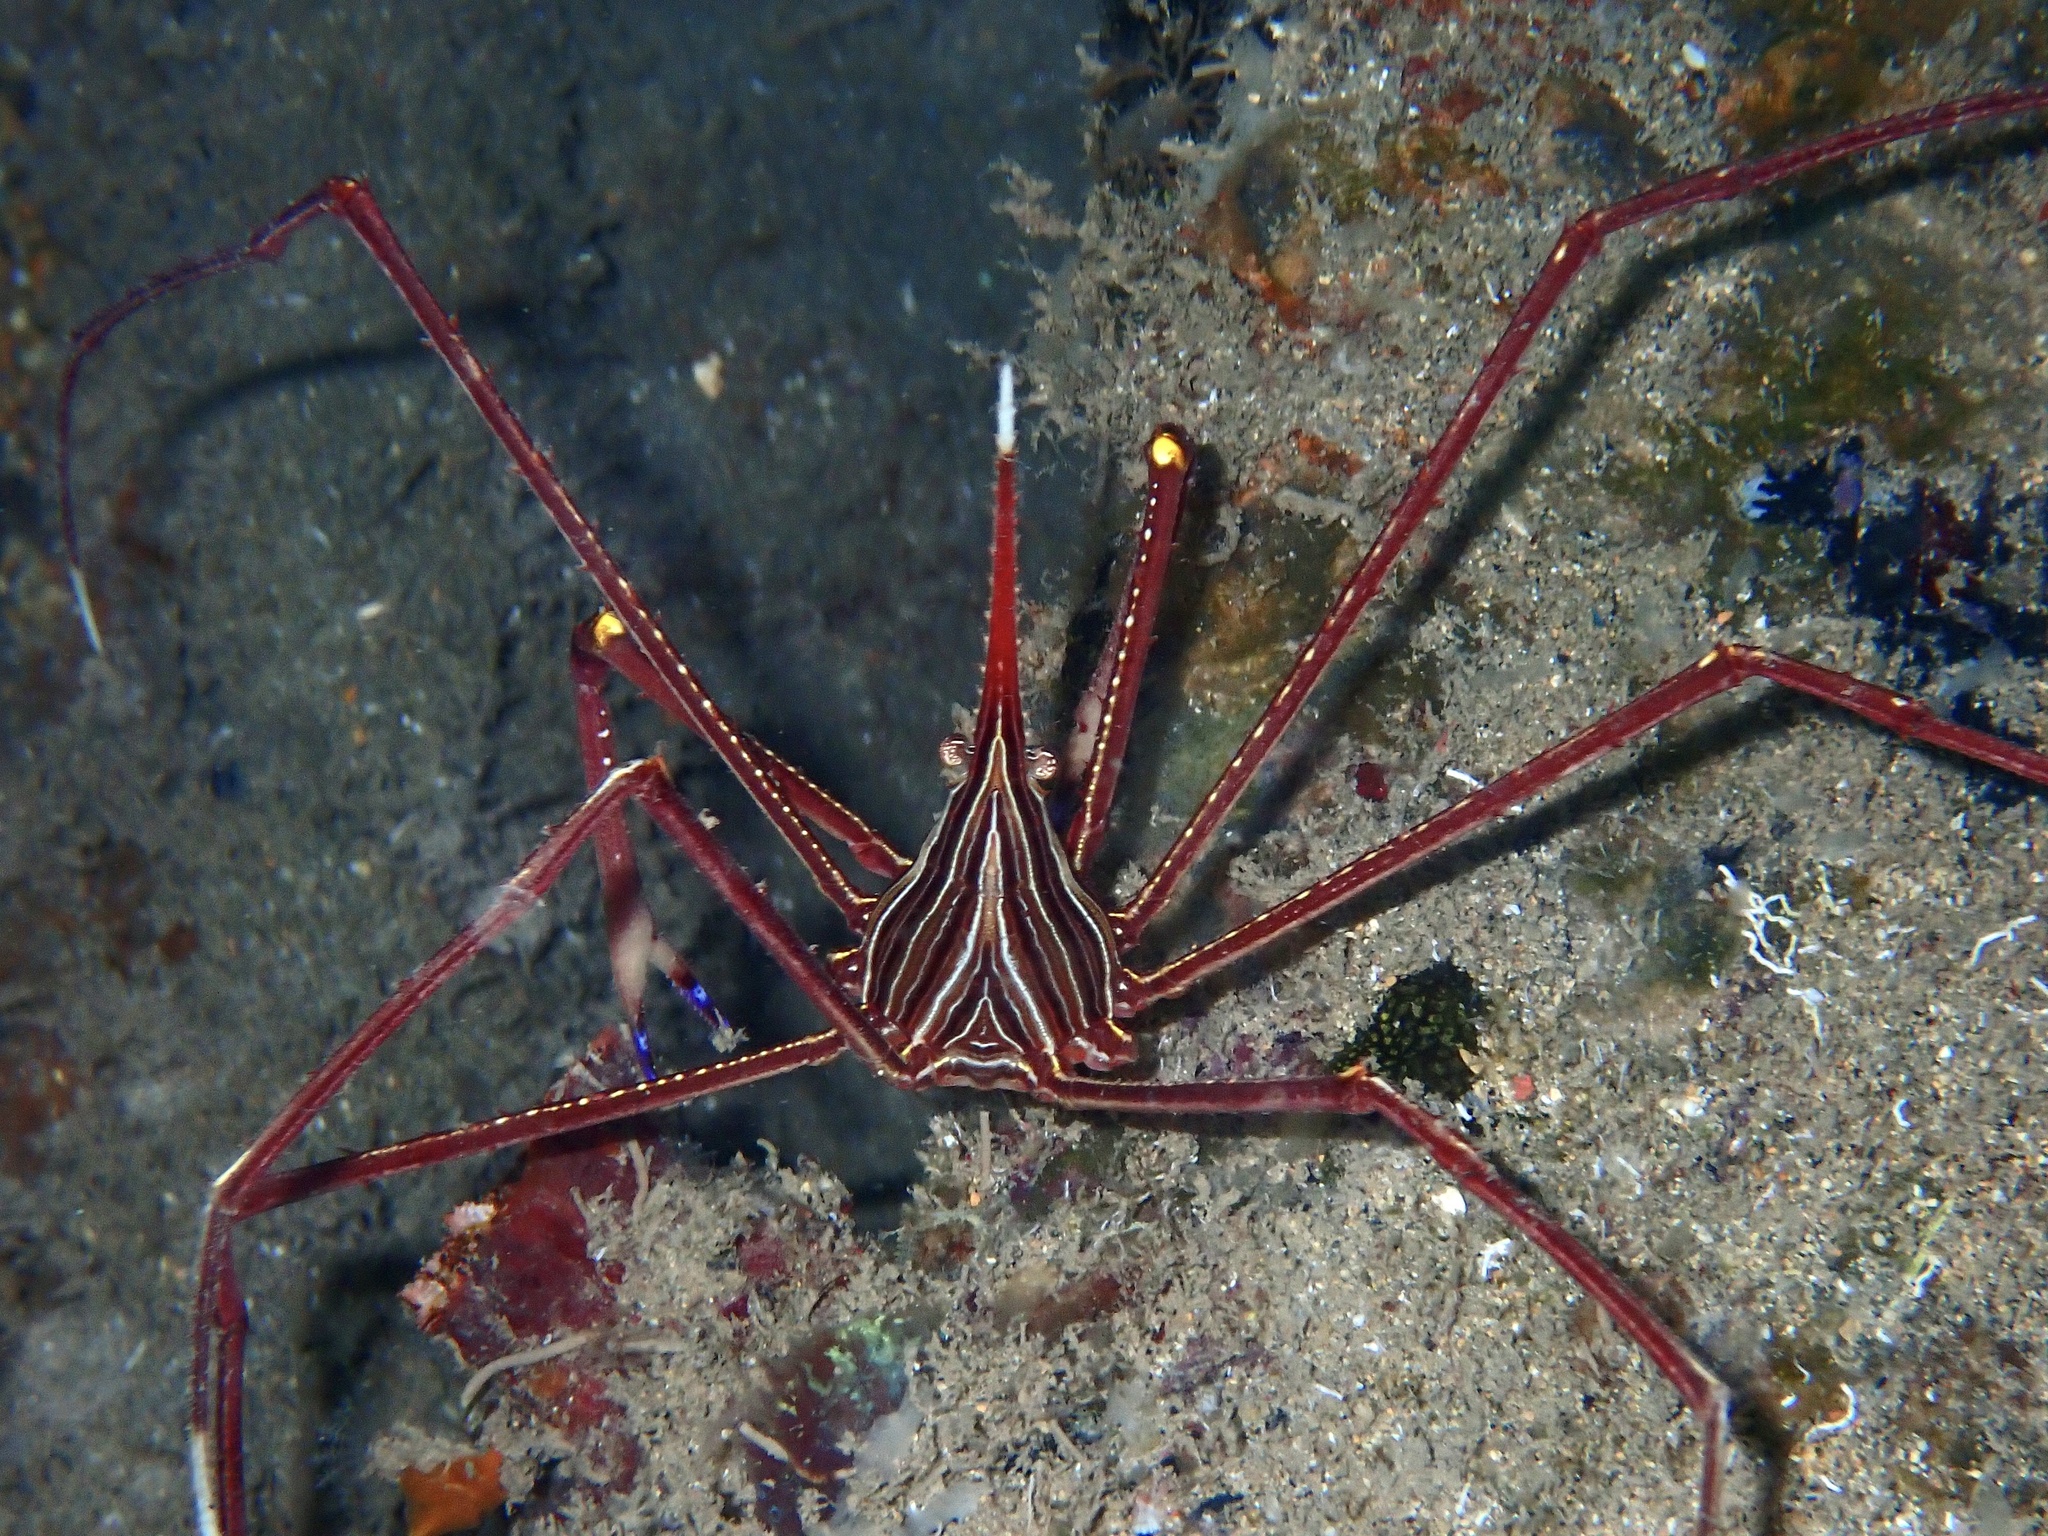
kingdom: Animalia
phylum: Arthropoda
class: Malacostraca
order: Decapoda
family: Inachoididae
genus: Stenorhynchus
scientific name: Stenorhynchus lanceolatus
